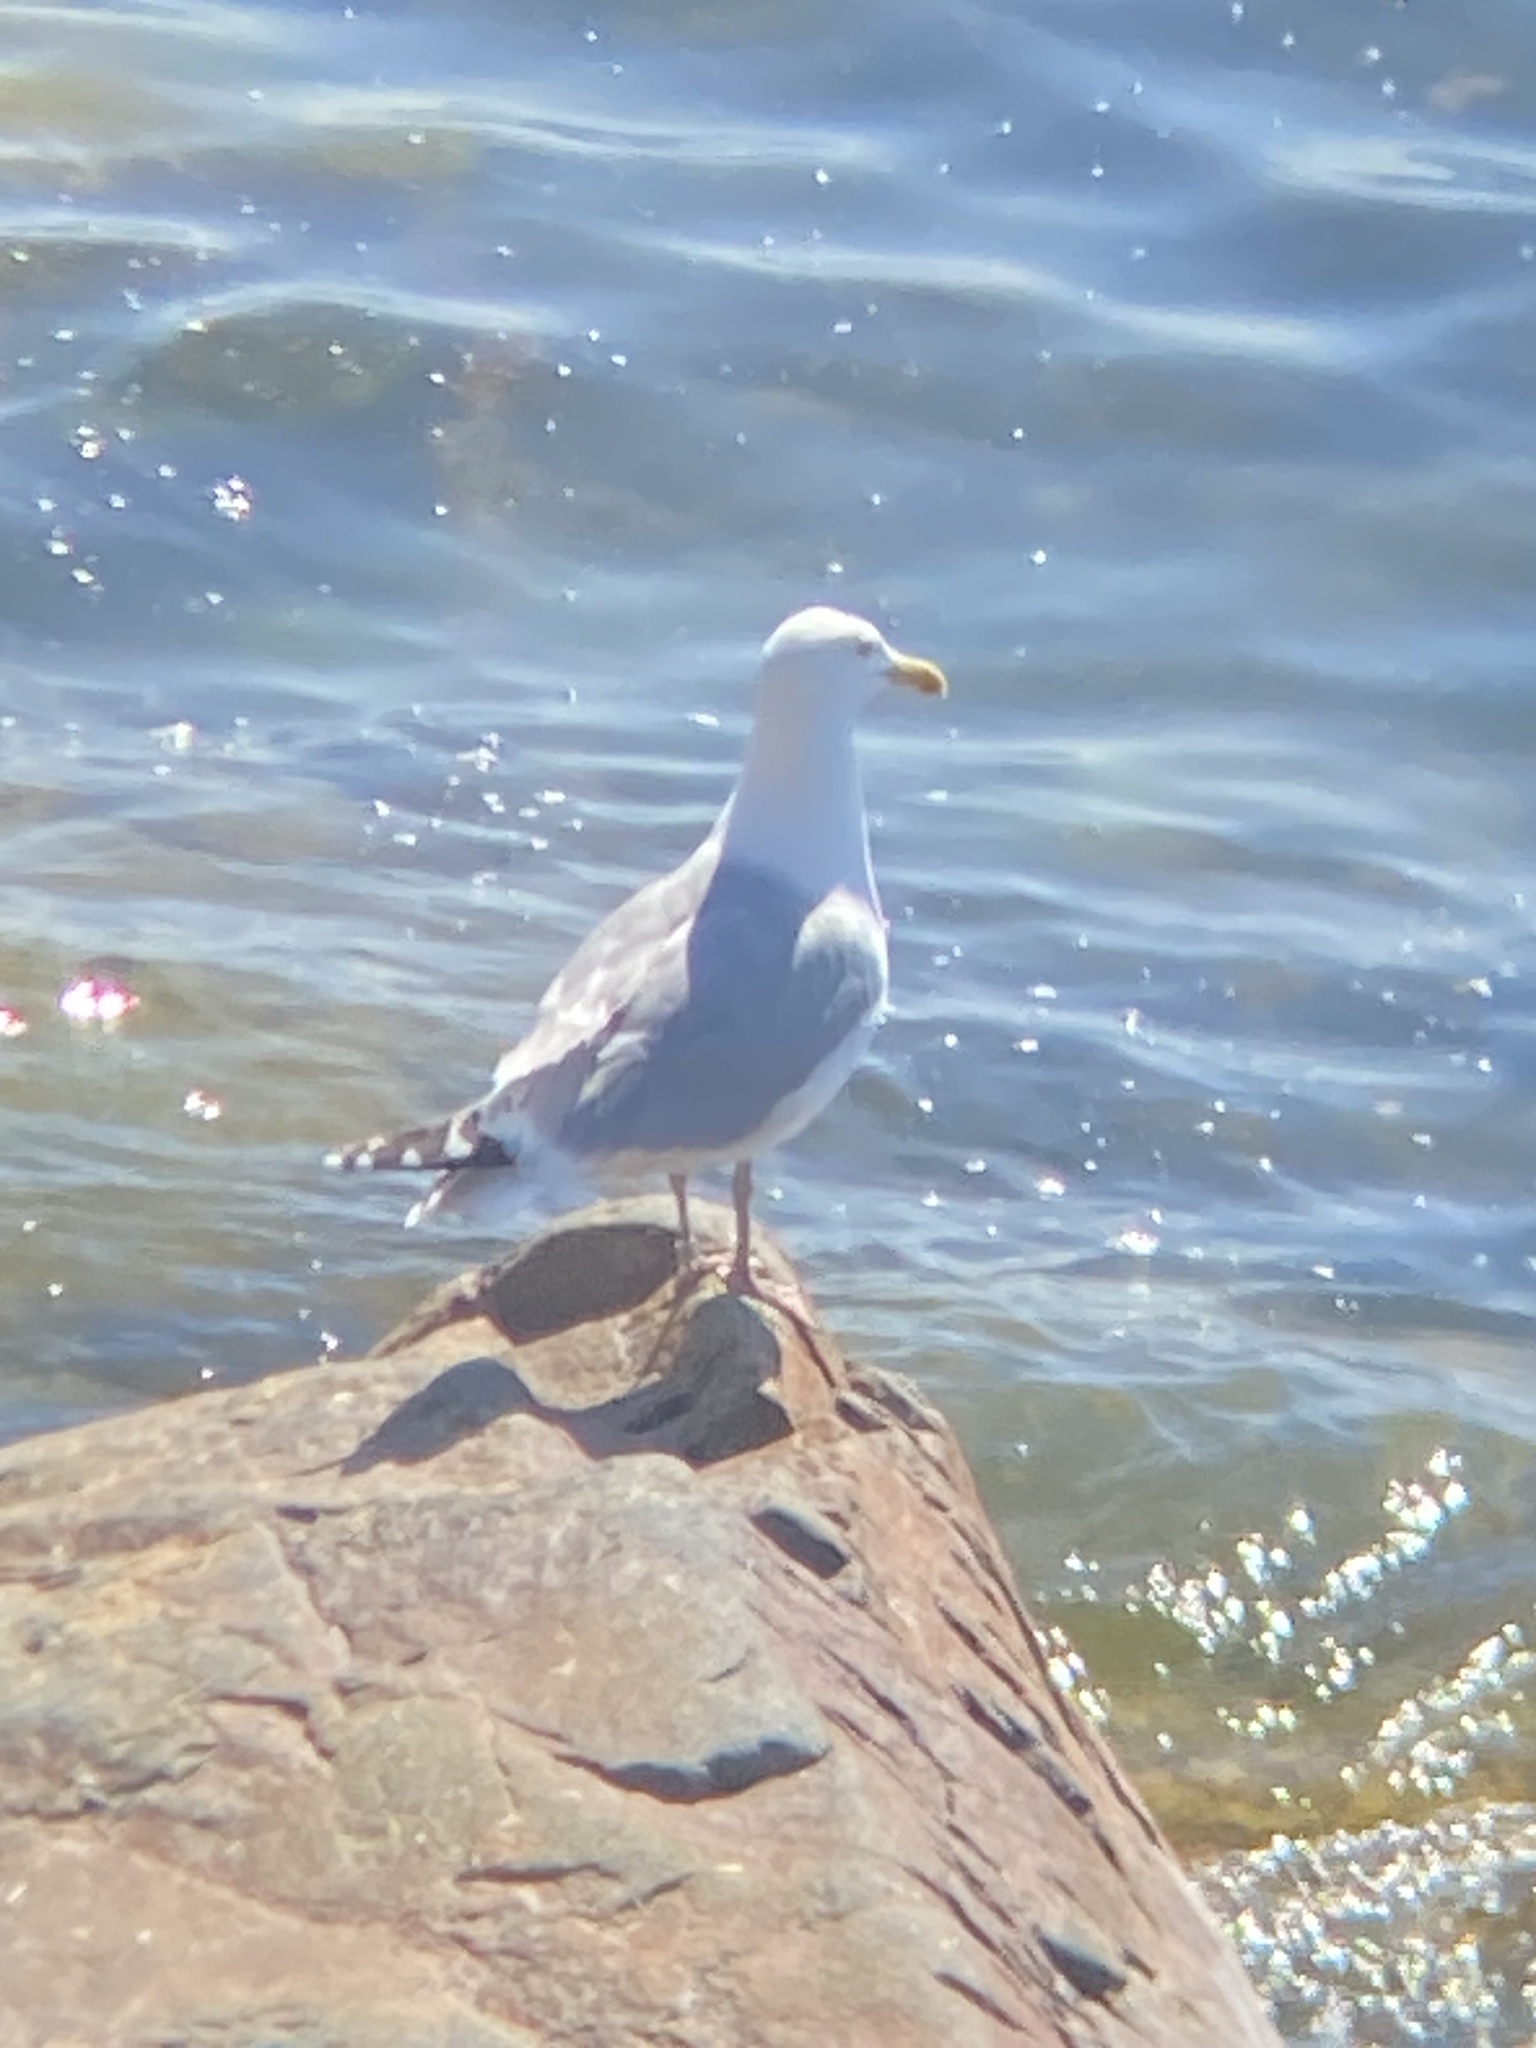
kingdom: Animalia
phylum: Chordata
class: Aves
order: Charadriiformes
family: Laridae
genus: Larus
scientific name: Larus argentatus
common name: Herring gull
